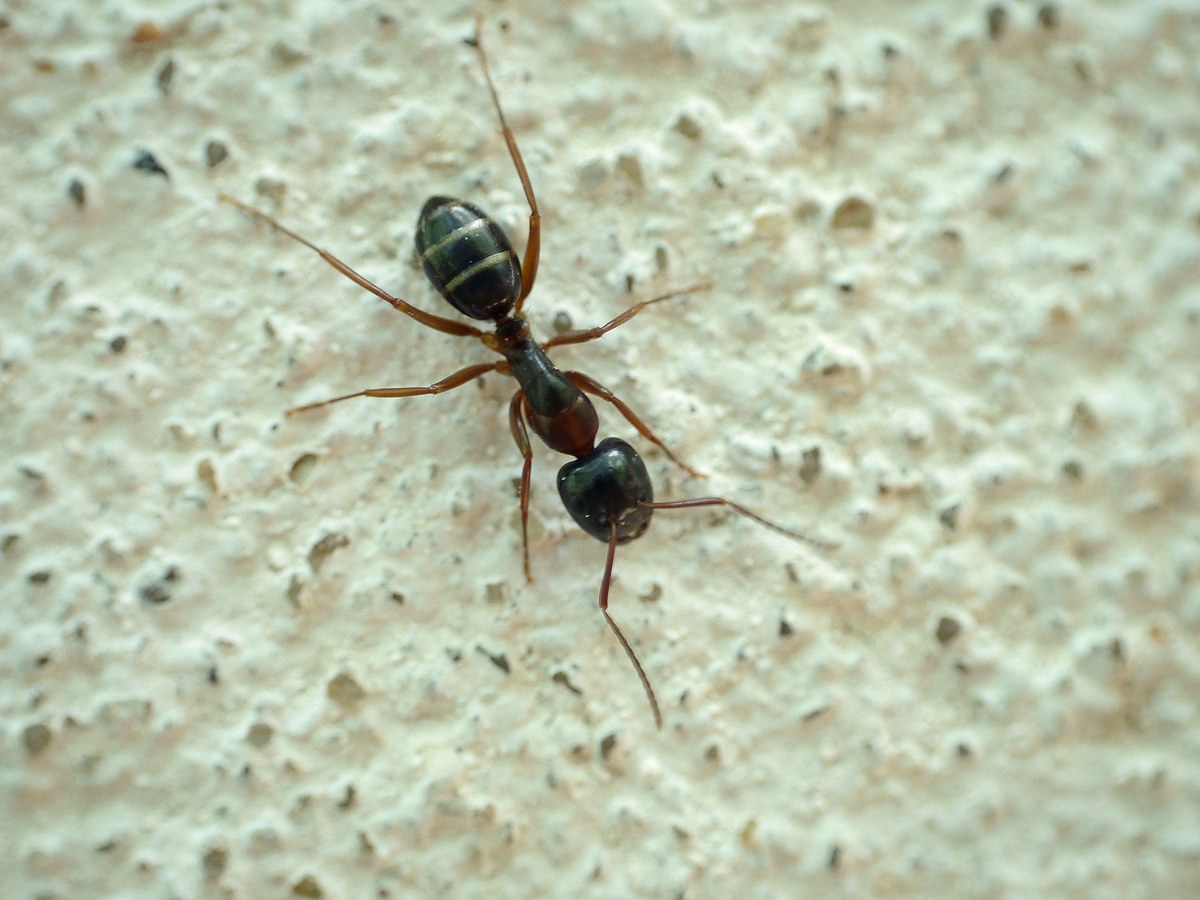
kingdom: Animalia
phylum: Arthropoda
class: Insecta
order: Hymenoptera
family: Formicidae
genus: Camponotus
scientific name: Camponotus fallax
